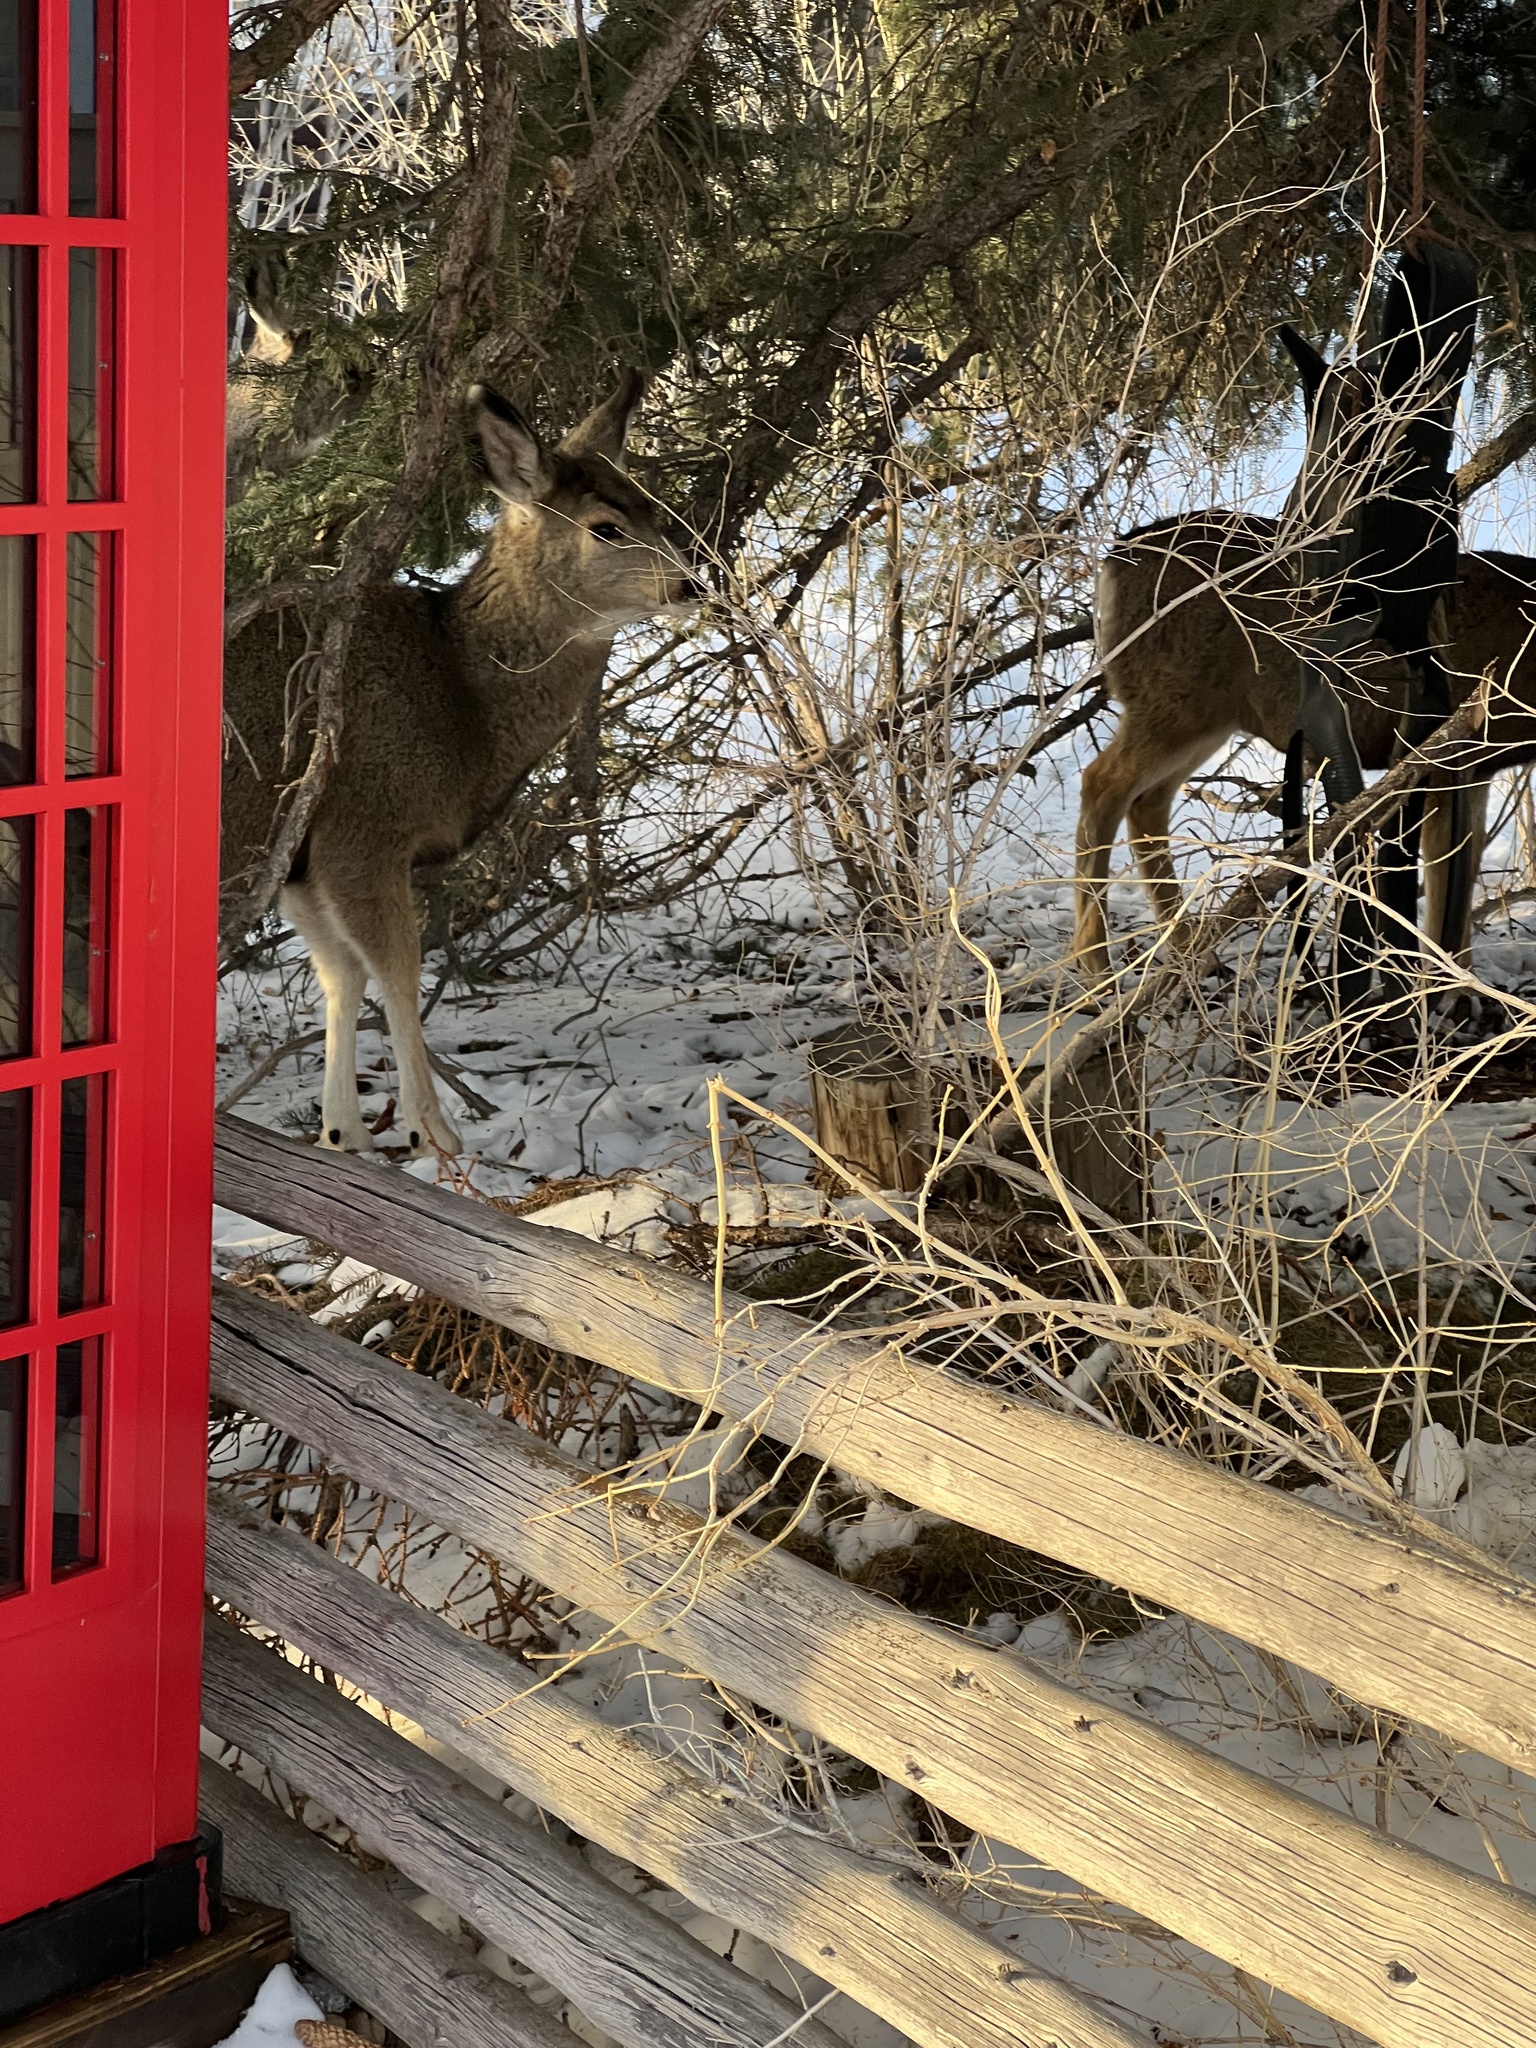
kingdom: Animalia
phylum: Chordata
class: Mammalia
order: Artiodactyla
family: Cervidae
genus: Odocoileus
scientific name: Odocoileus hemionus
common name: Mule deer
